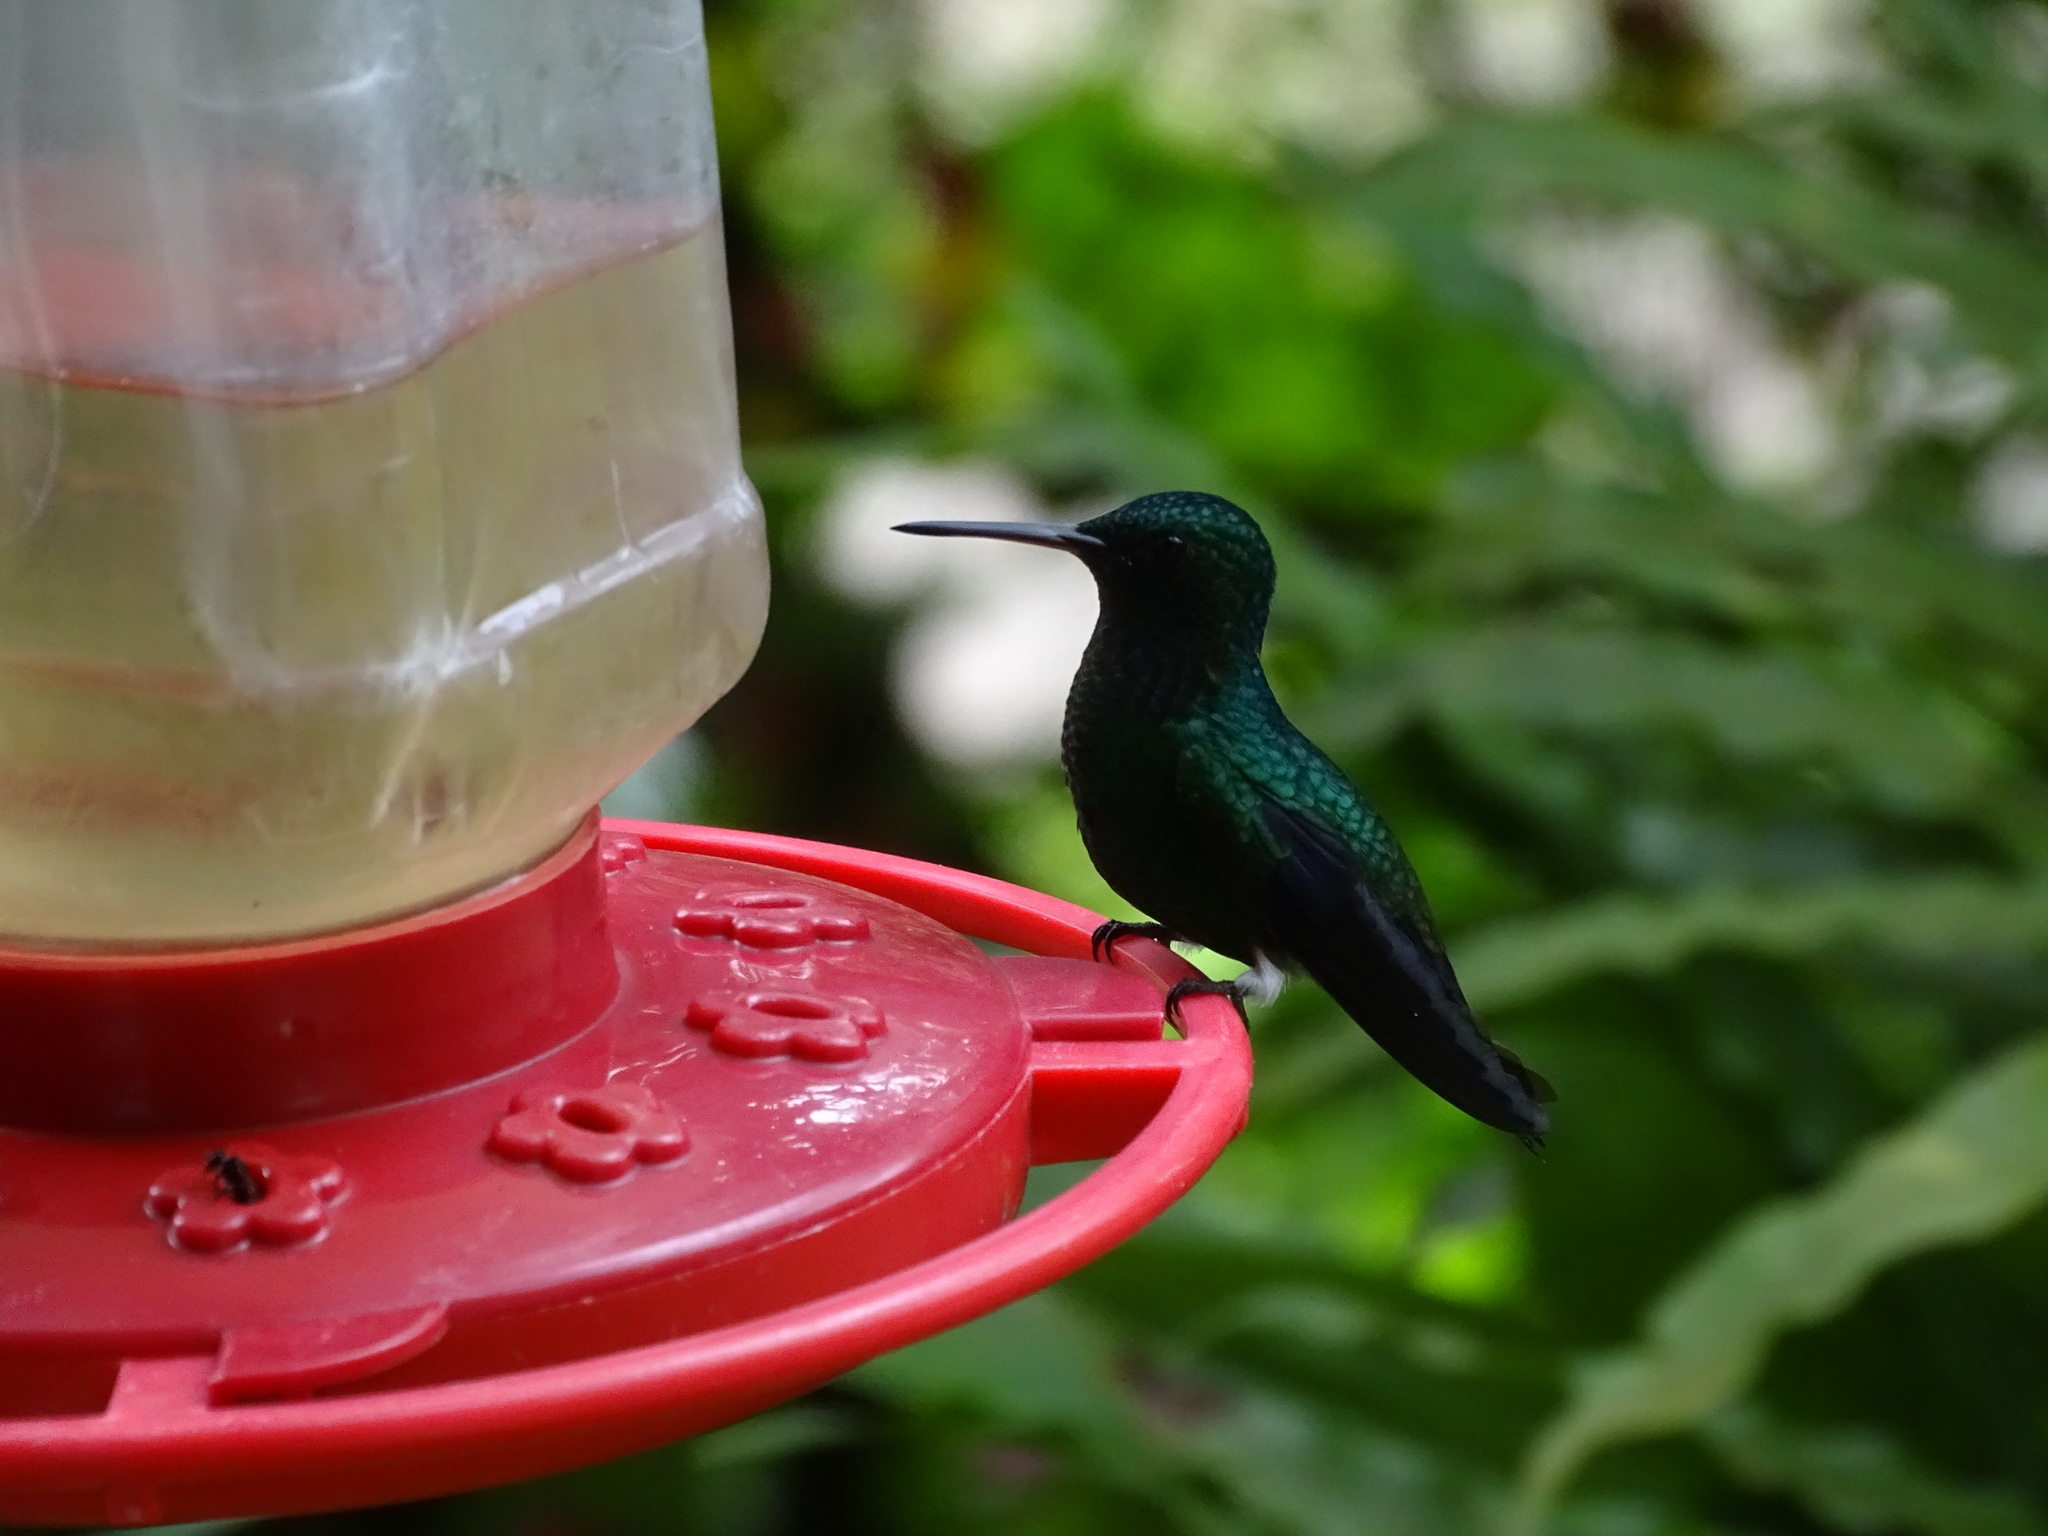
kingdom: Animalia
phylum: Chordata
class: Aves
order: Apodiformes
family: Trochilidae
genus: Saucerottia
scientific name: Saucerottia saucerottei
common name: Steely-vented hummingbird
